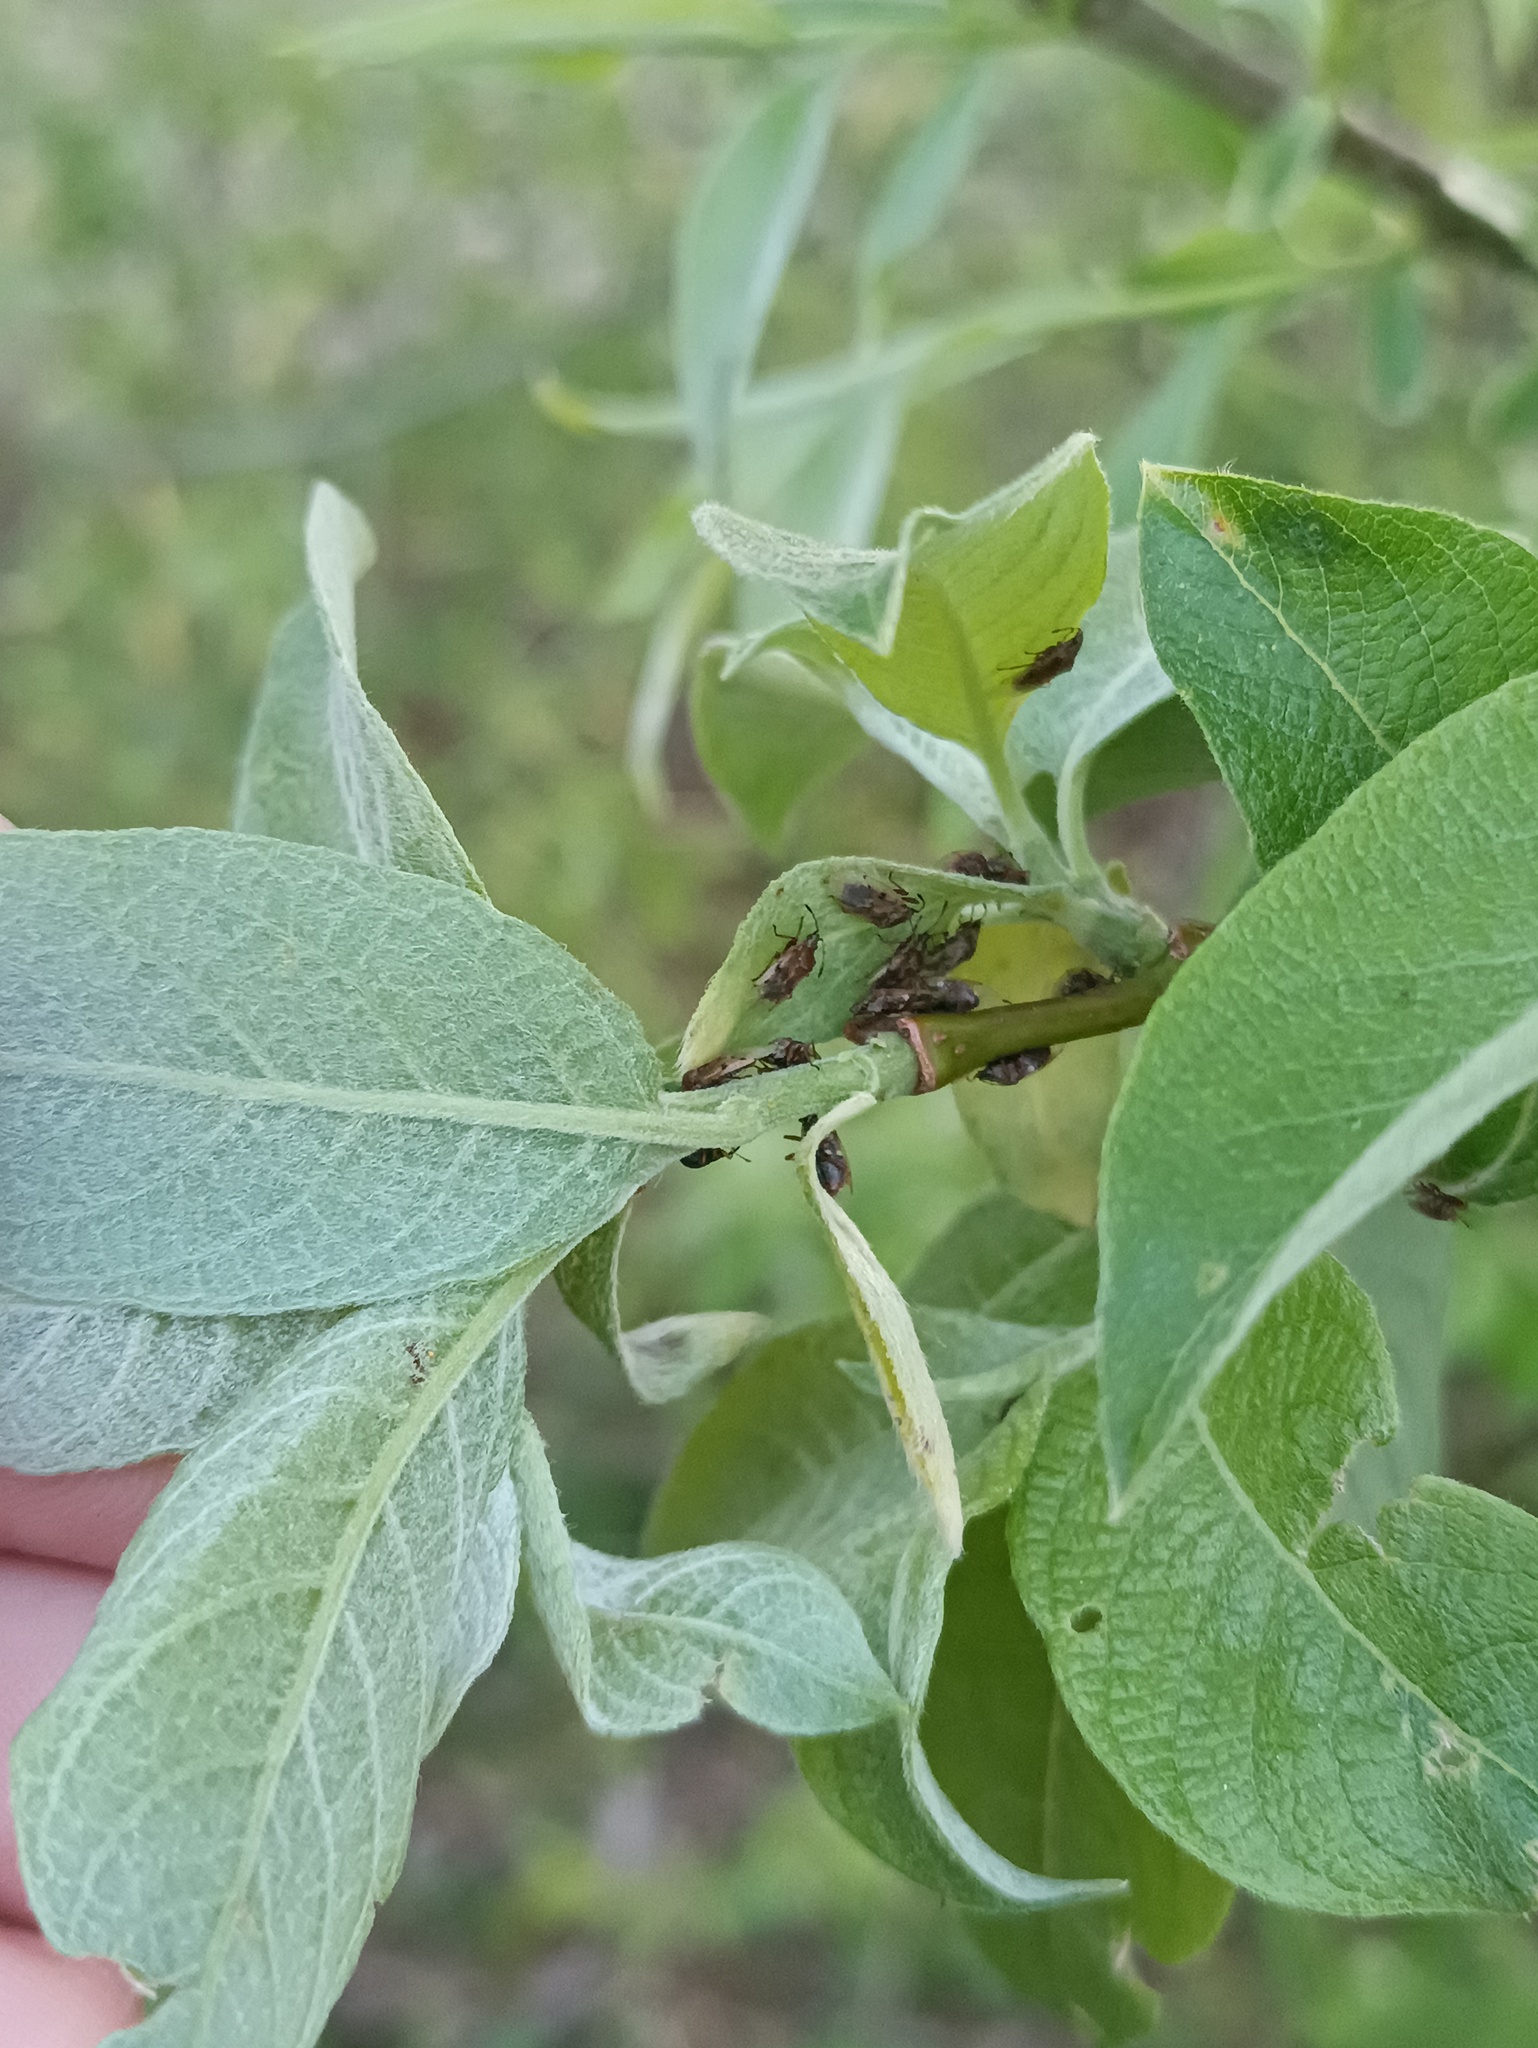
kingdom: Animalia
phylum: Arthropoda
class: Insecta
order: Hemiptera
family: Lygaeidae
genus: Kleidocerys
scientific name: Kleidocerys resedae
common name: Birch catkin bug
